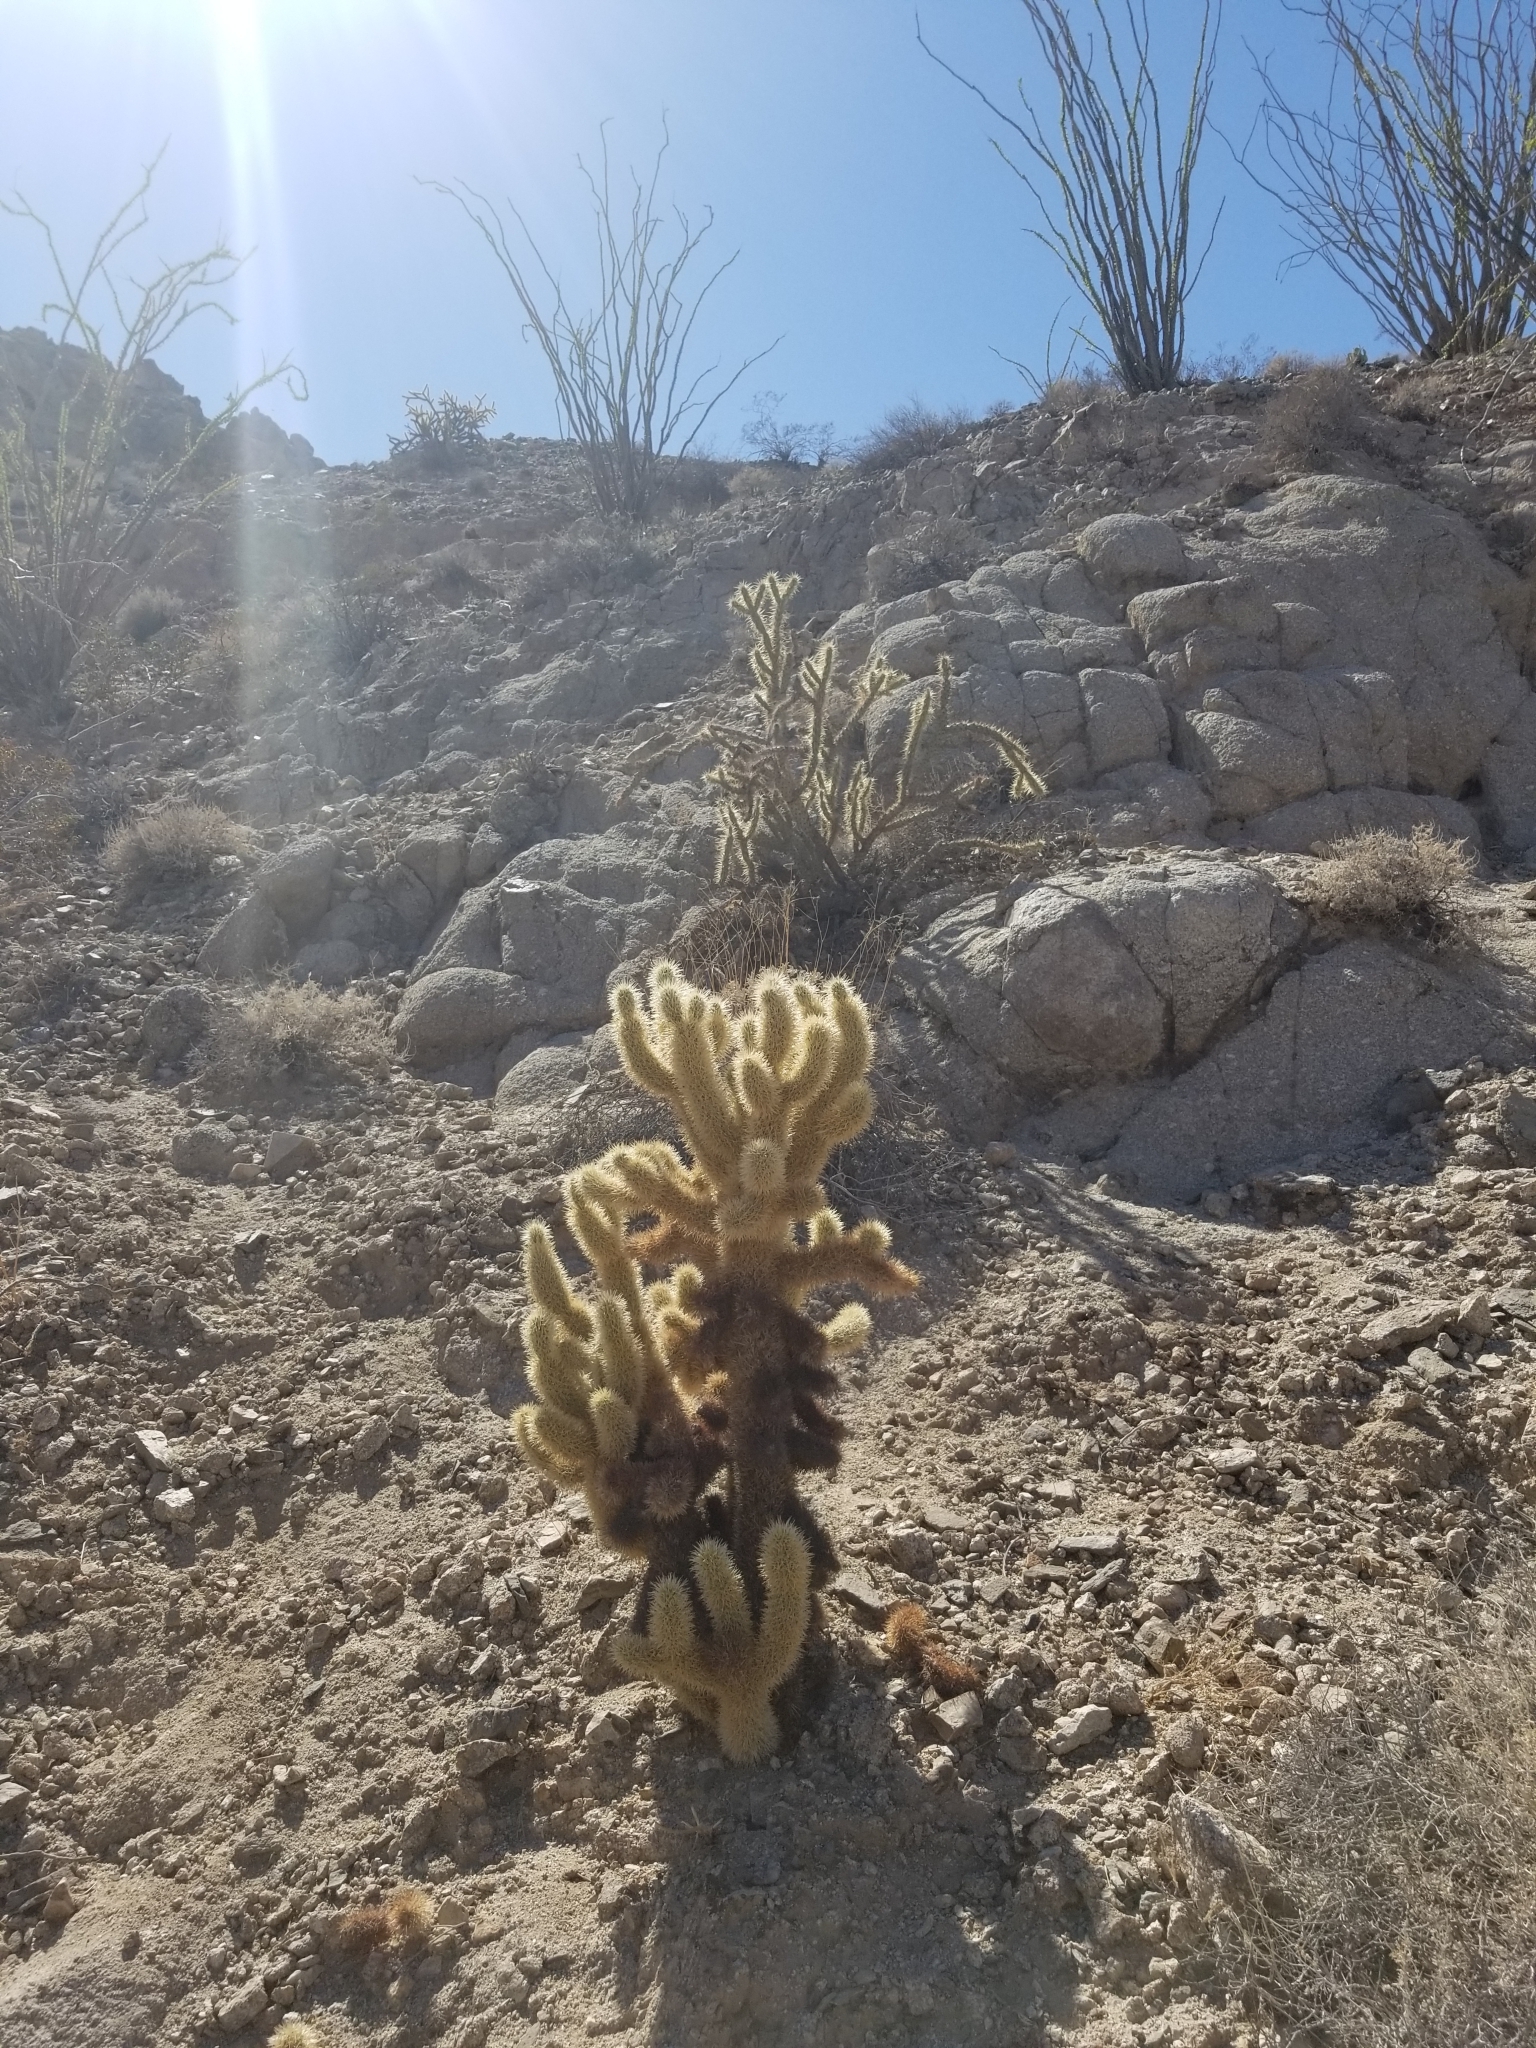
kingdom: Plantae
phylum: Tracheophyta
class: Magnoliopsida
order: Caryophyllales
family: Cactaceae
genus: Cylindropuntia
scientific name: Cylindropuntia fosbergii
